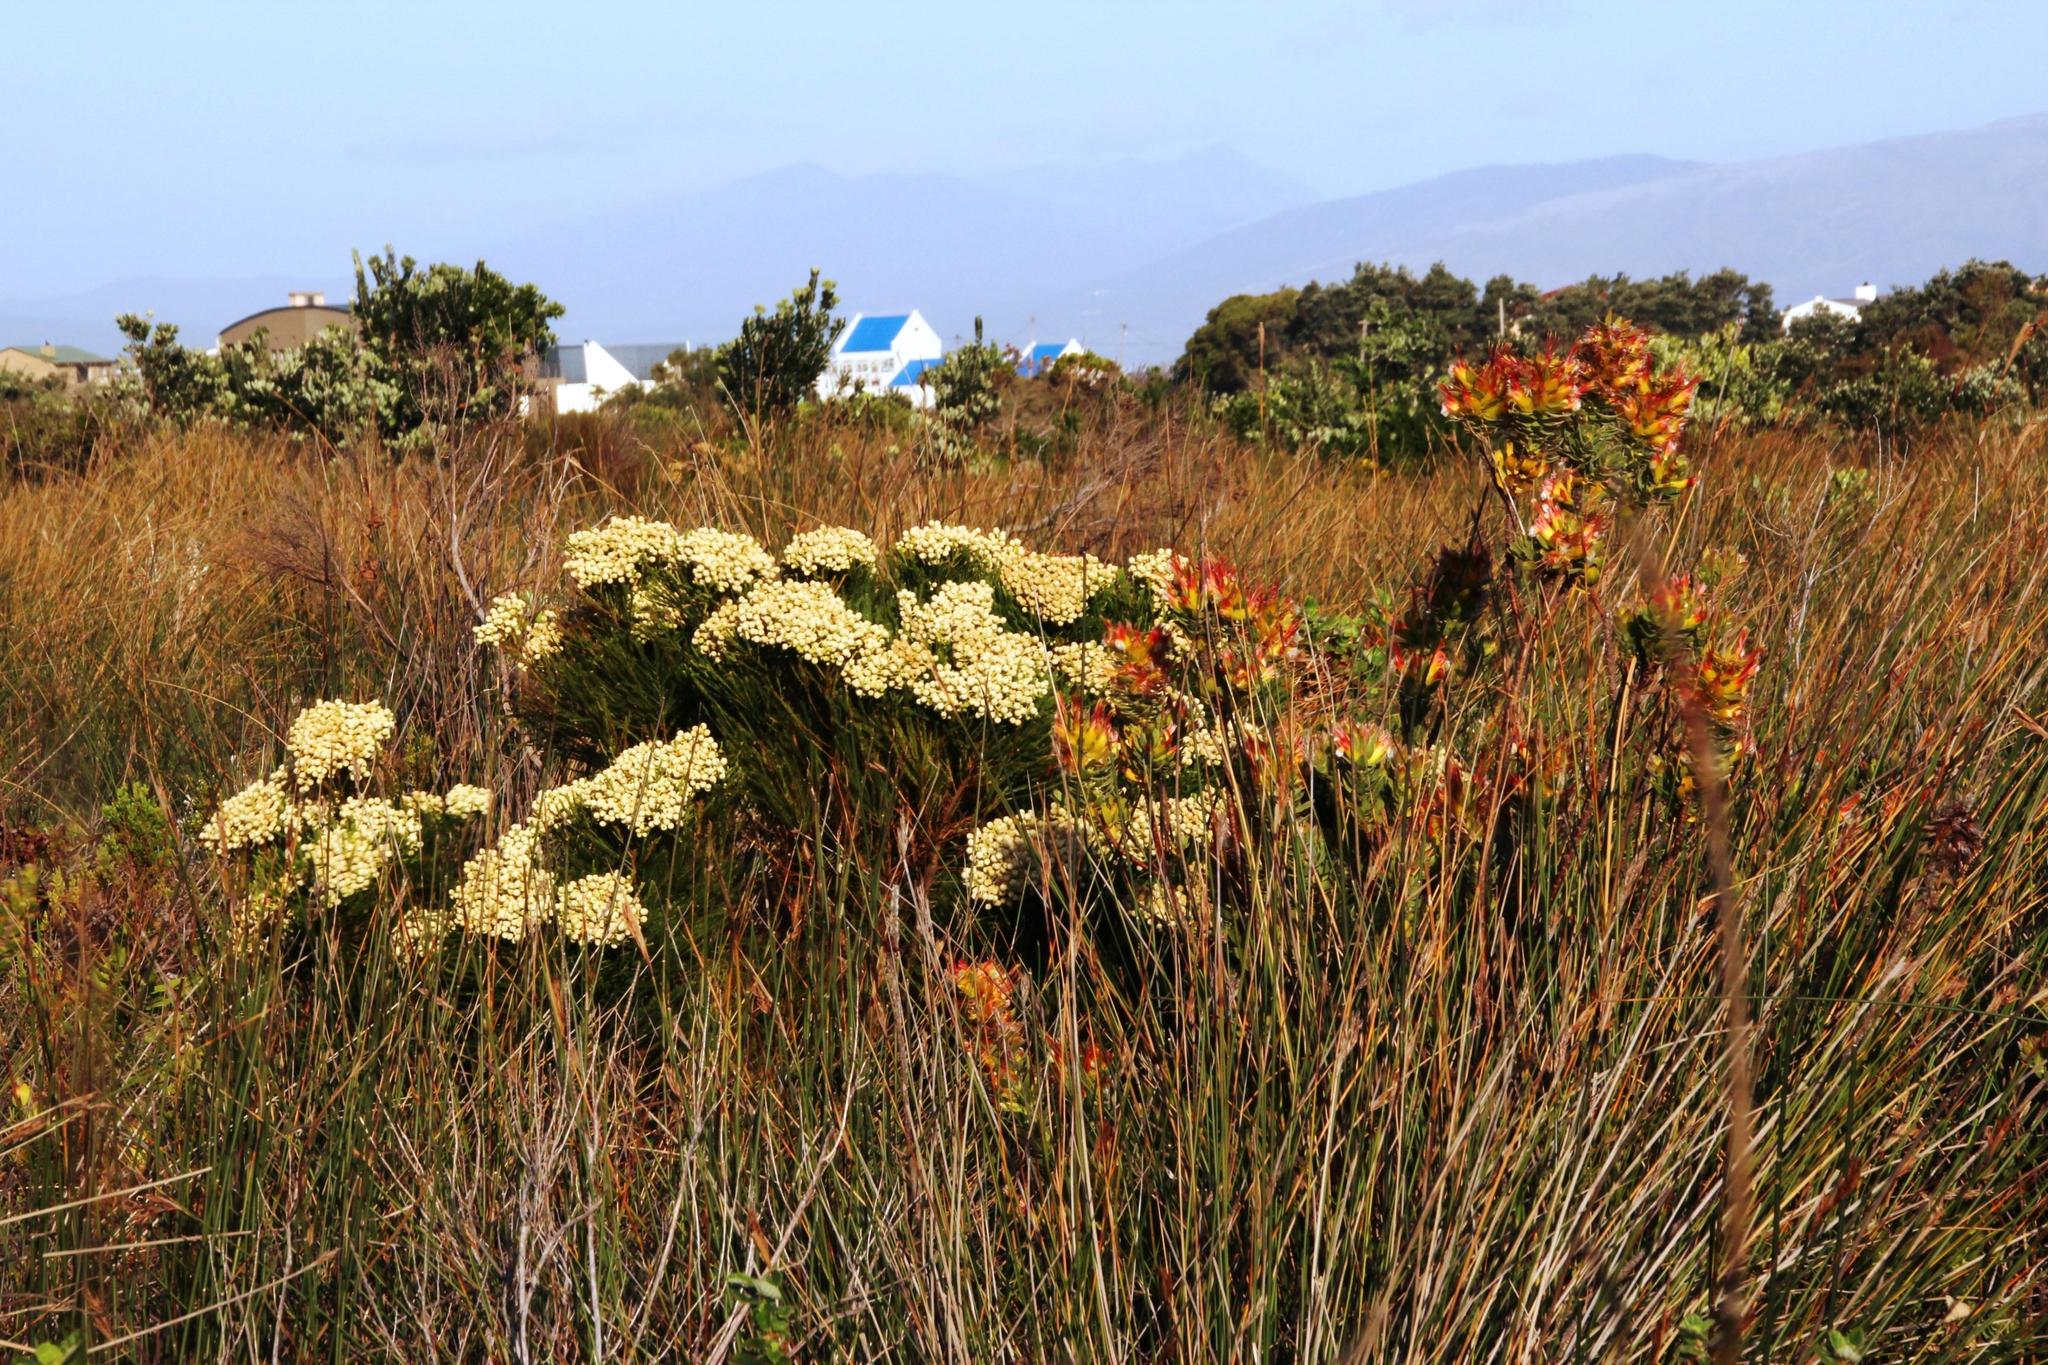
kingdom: Plantae
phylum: Tracheophyta
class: Magnoliopsida
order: Bruniales
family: Bruniaceae
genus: Berzelia
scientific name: Berzelia lanuginosa
